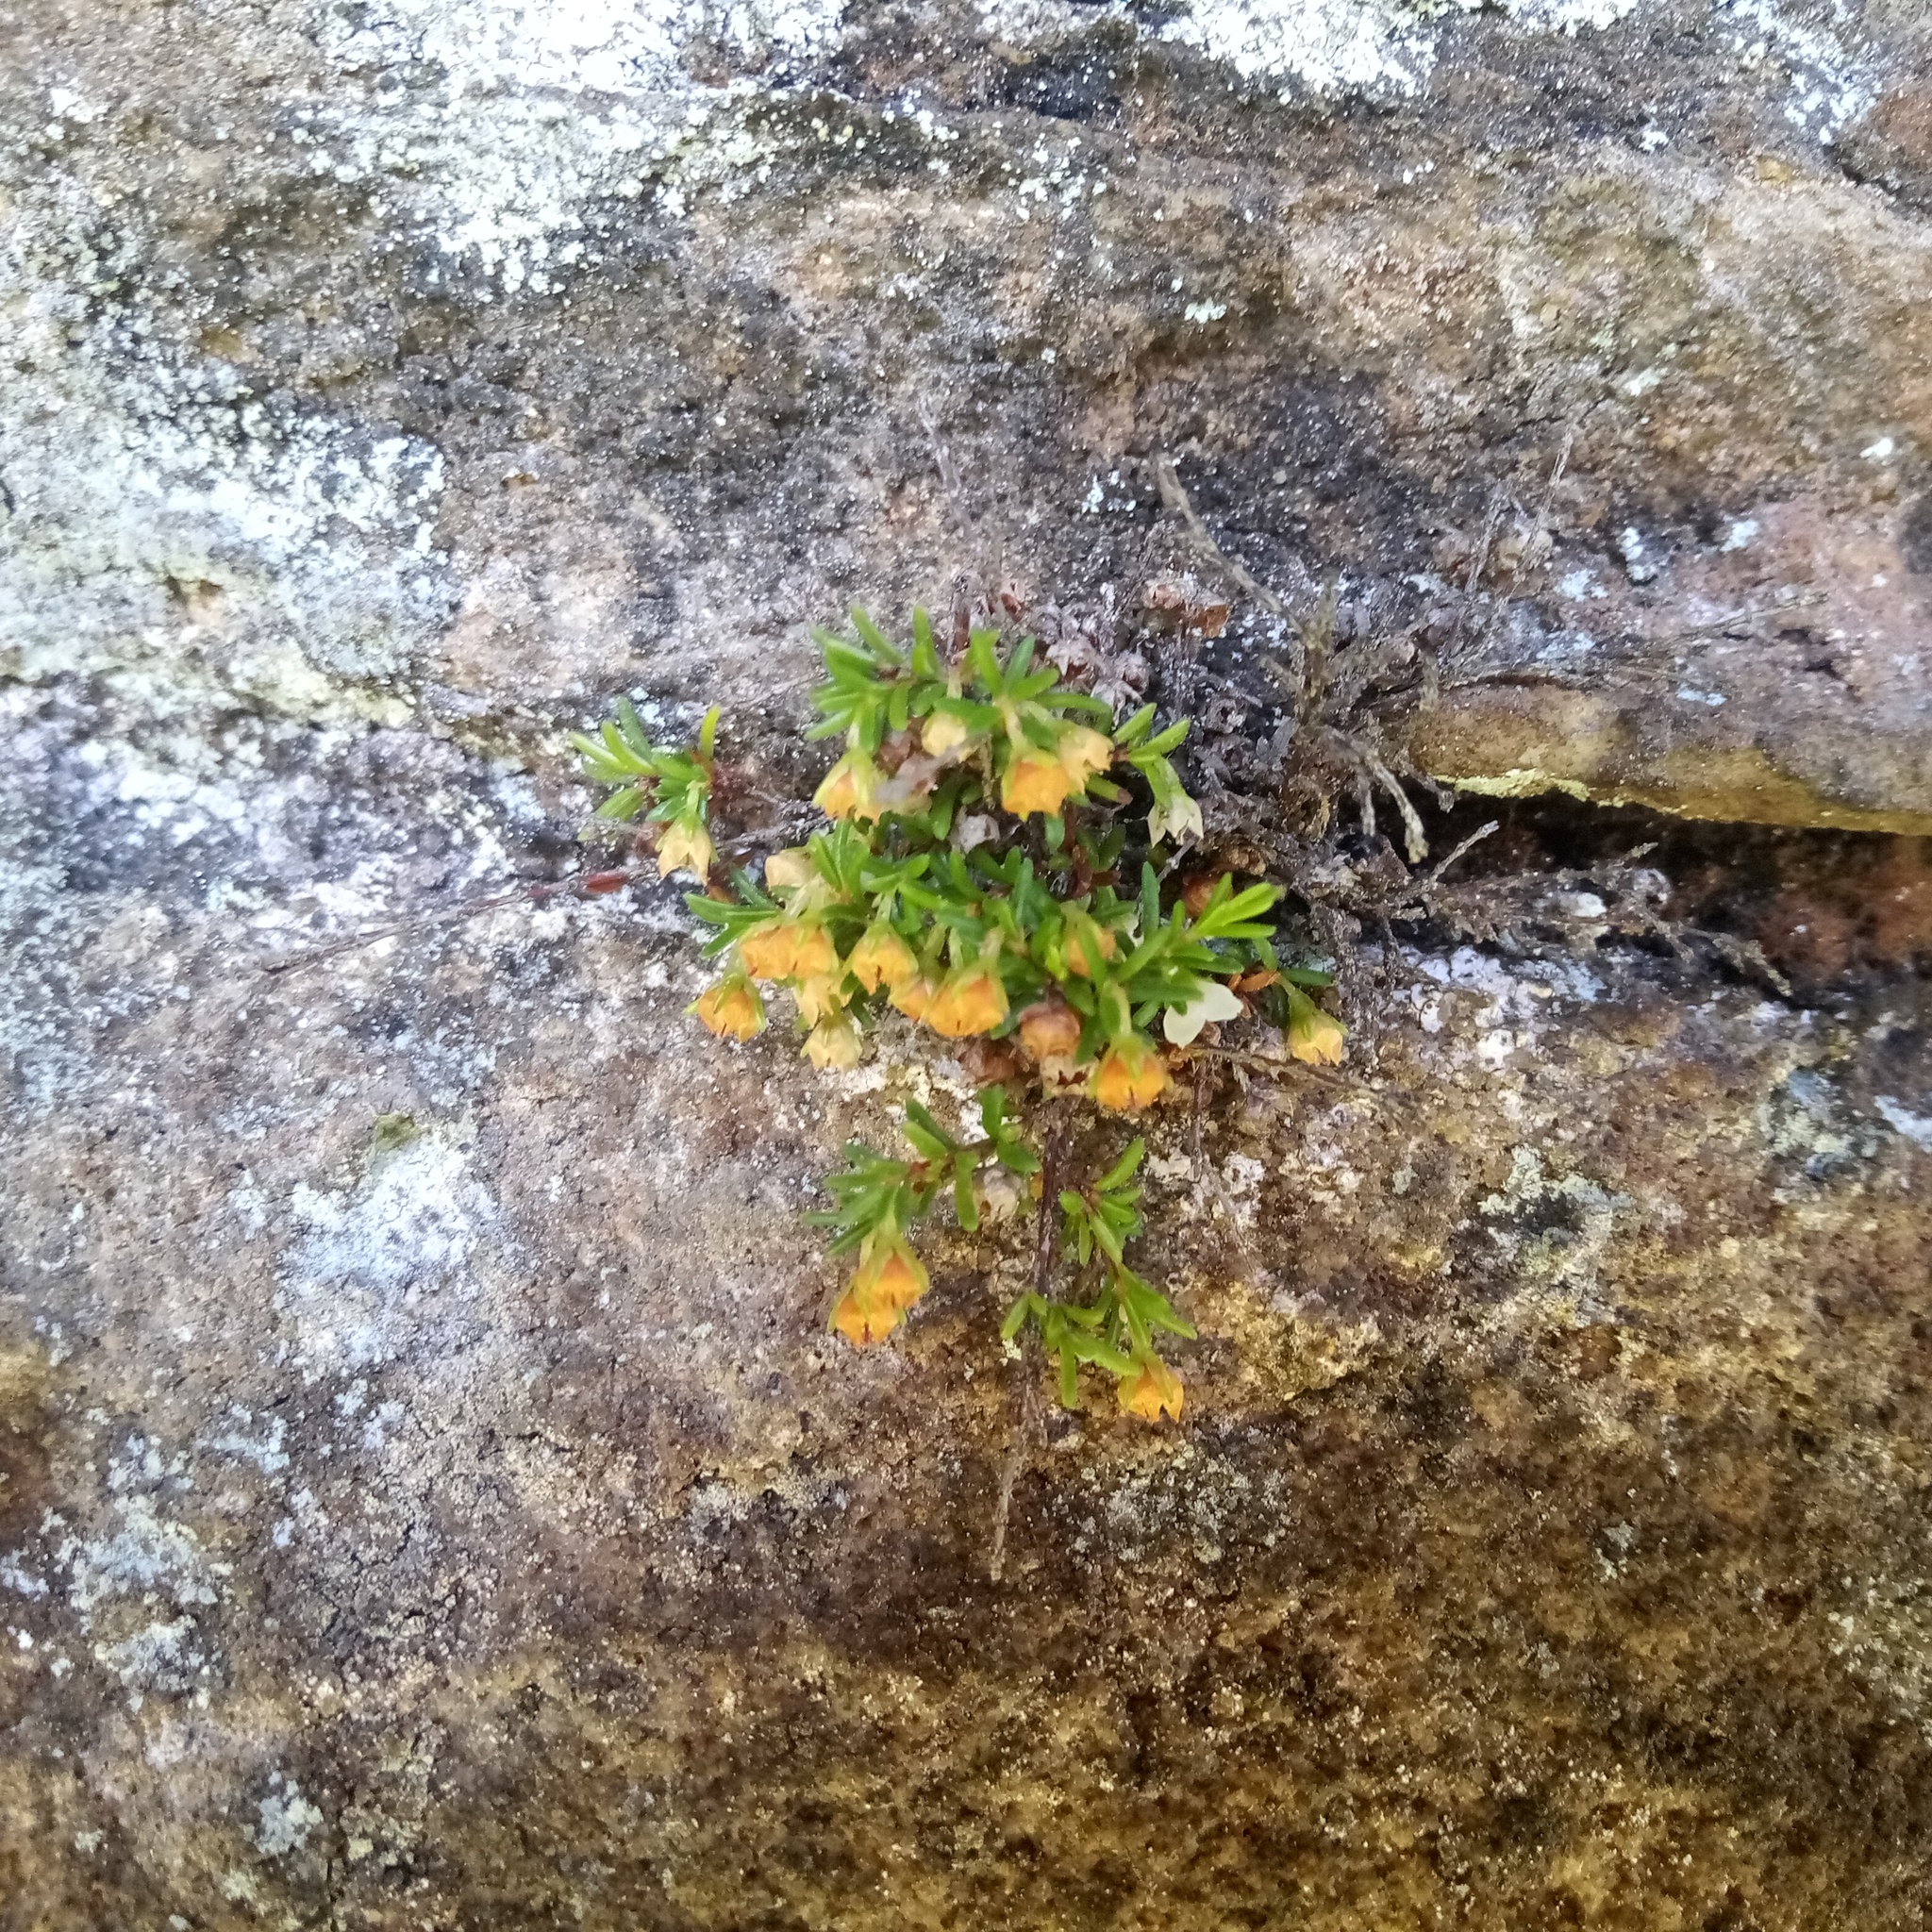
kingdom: Plantae
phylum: Tracheophyta
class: Magnoliopsida
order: Ericales
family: Ericaceae
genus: Erica
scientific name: Erica tenuis
